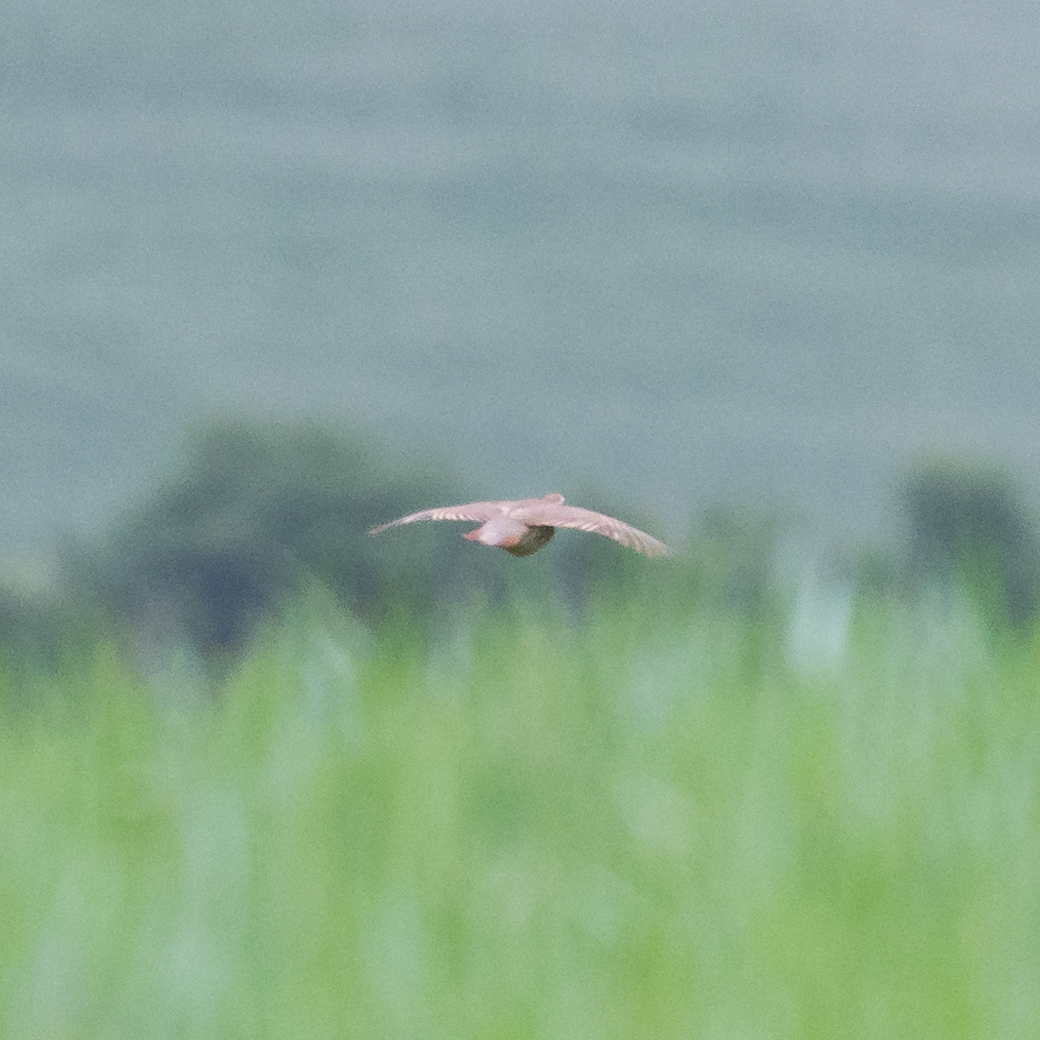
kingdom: Animalia
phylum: Chordata
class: Aves
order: Galliformes
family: Phasianidae
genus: Alectoris
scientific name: Alectoris rufa
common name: Red-legged partridge
